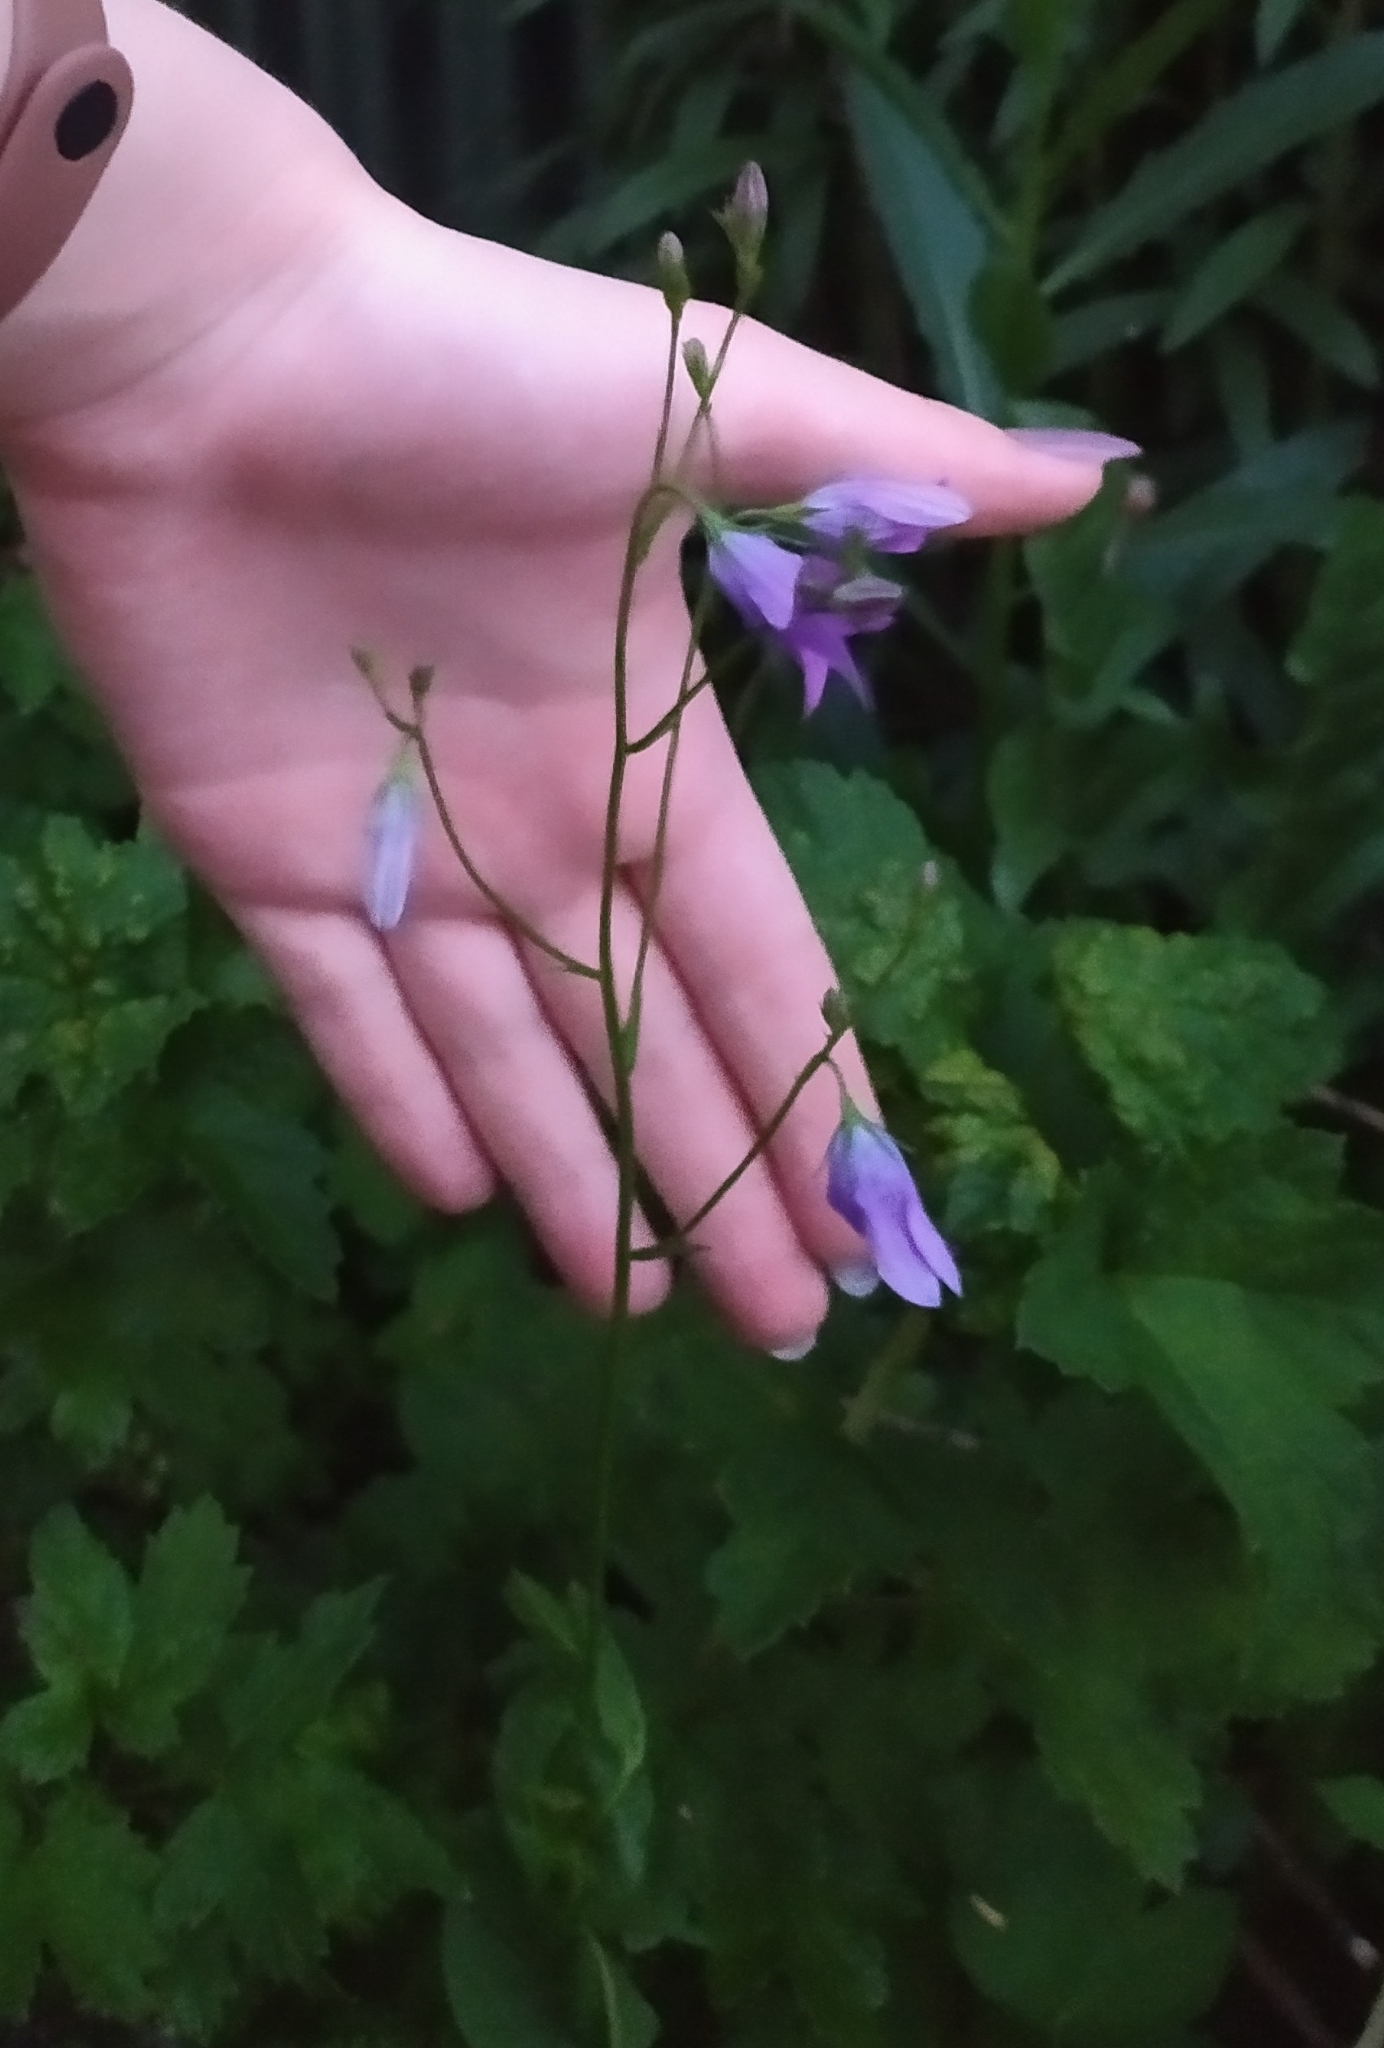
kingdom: Plantae
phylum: Tracheophyta
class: Magnoliopsida
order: Asterales
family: Campanulaceae
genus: Campanula
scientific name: Campanula patula
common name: Spreading bellflower
